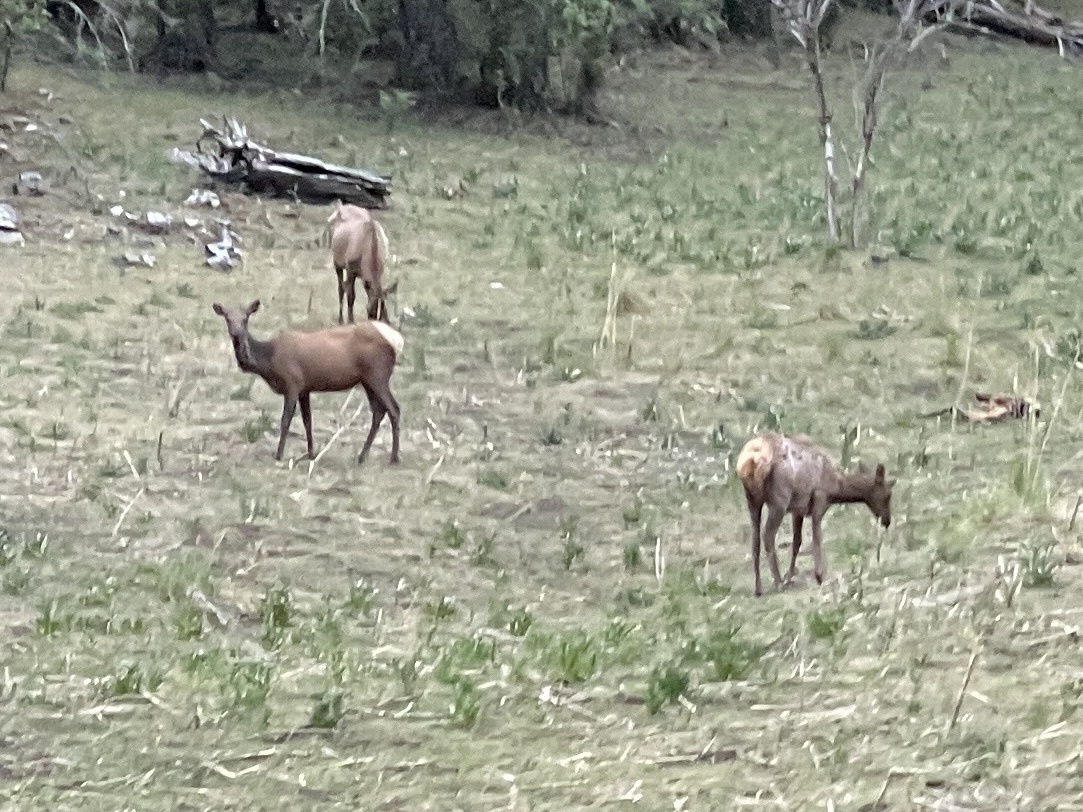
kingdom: Animalia
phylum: Chordata
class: Mammalia
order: Artiodactyla
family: Cervidae
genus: Cervus
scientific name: Cervus elaphus
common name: Red deer
